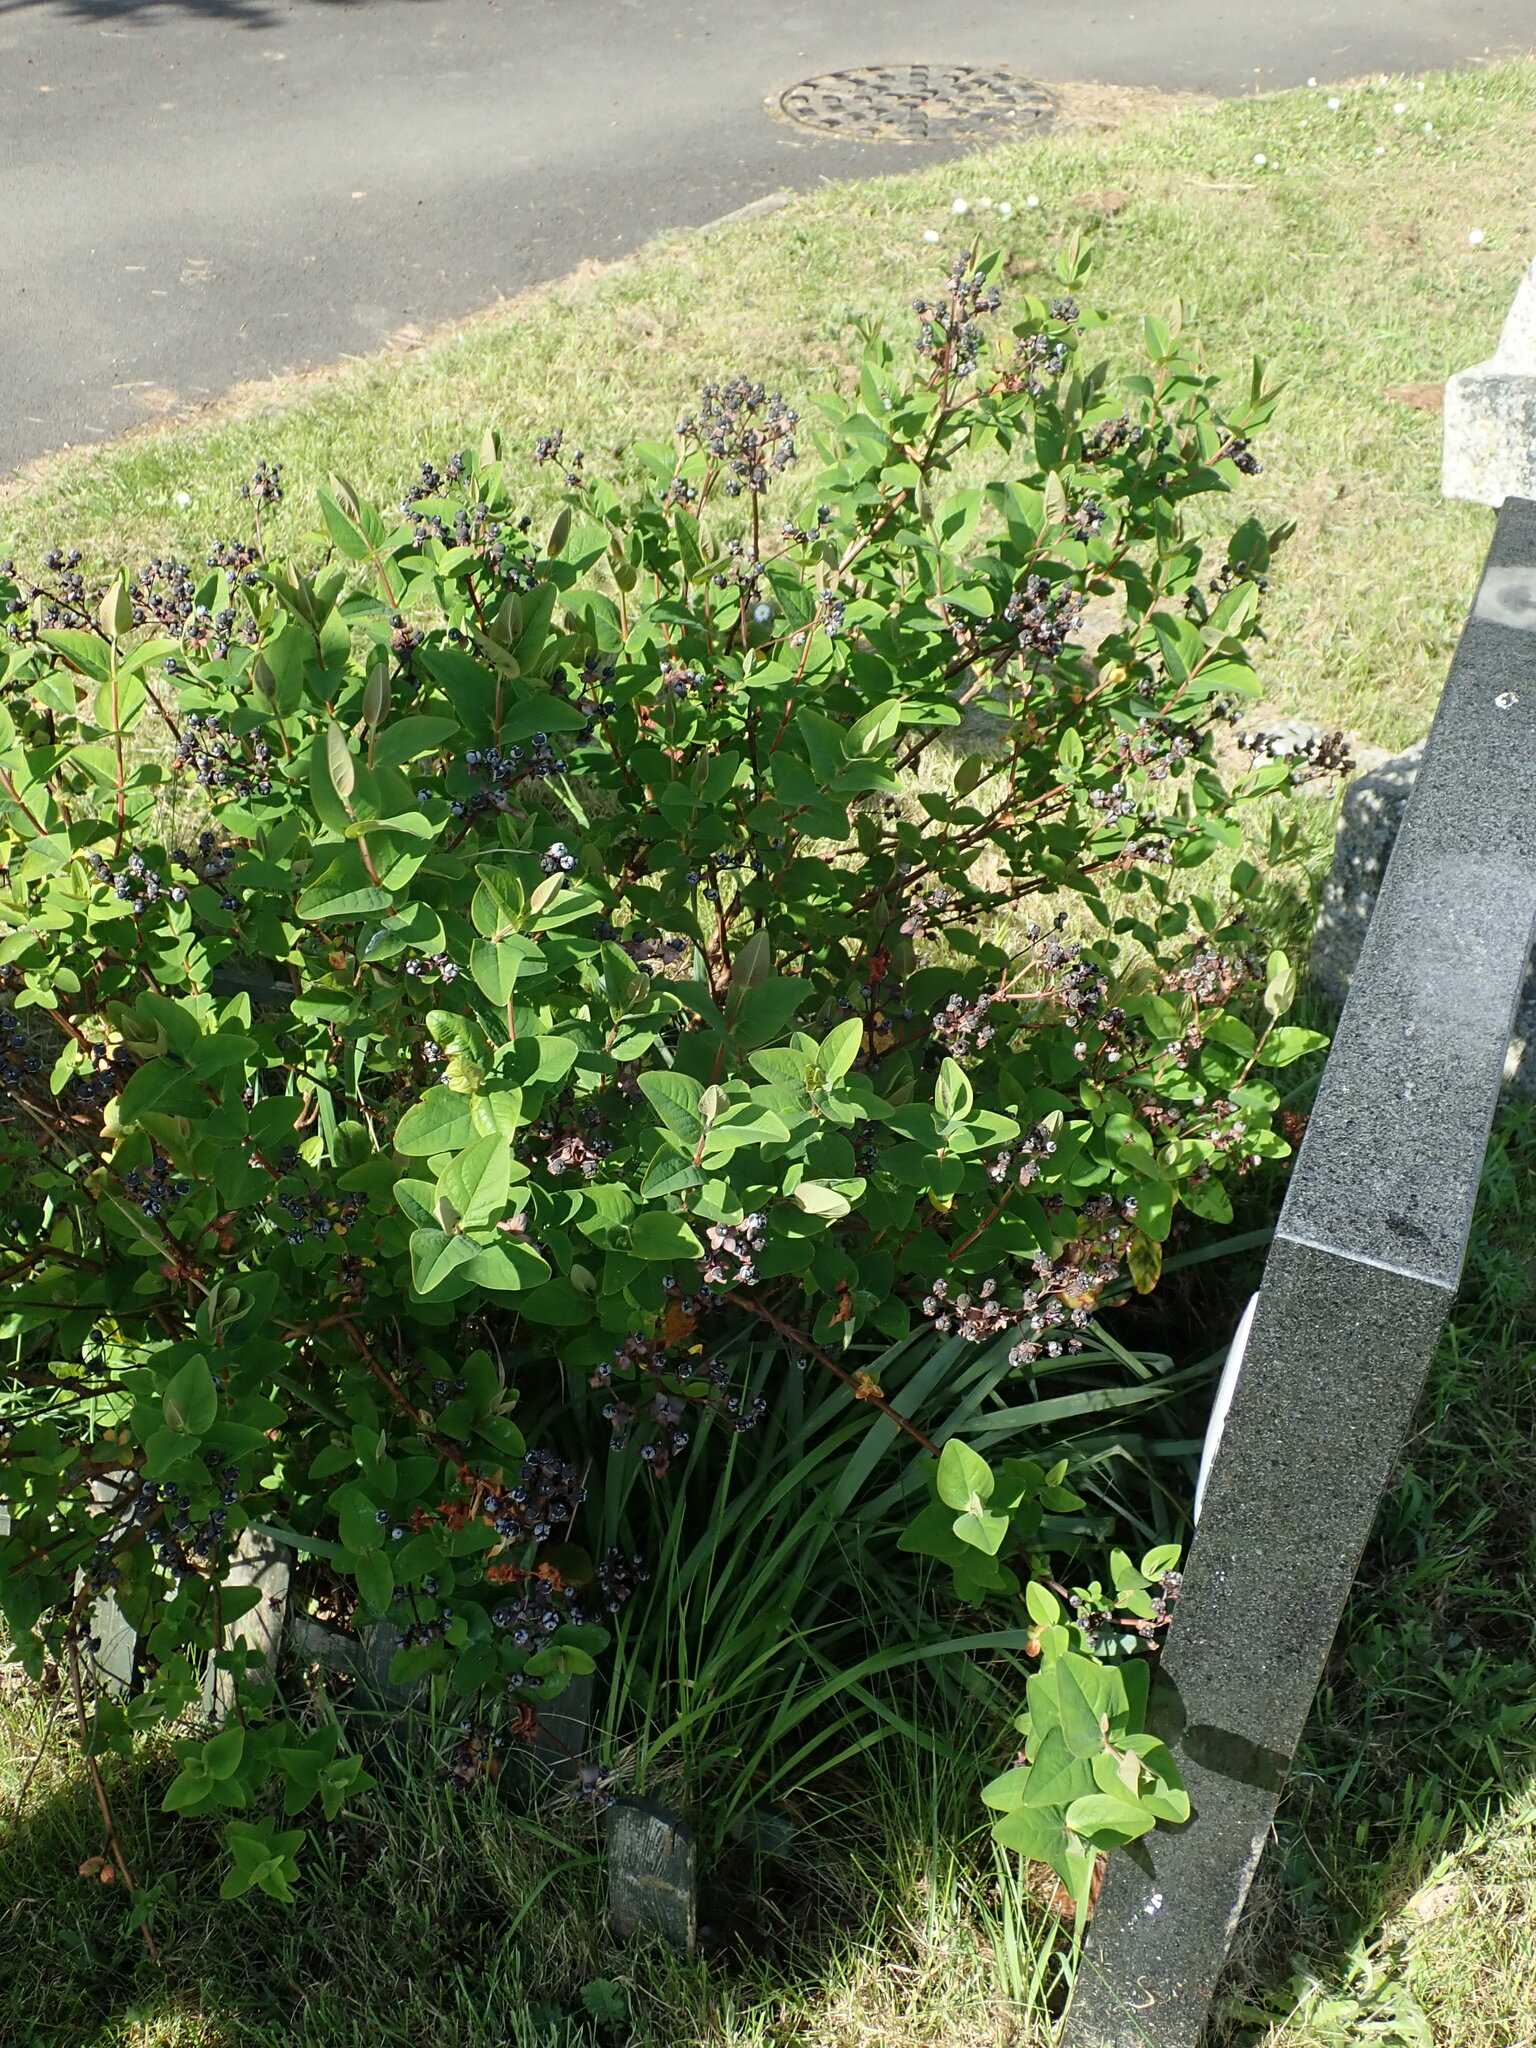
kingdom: Plantae
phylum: Tracheophyta
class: Magnoliopsida
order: Malpighiales
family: Hypericaceae
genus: Hypericum
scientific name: Hypericum hircinum
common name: Stinking tutsan
